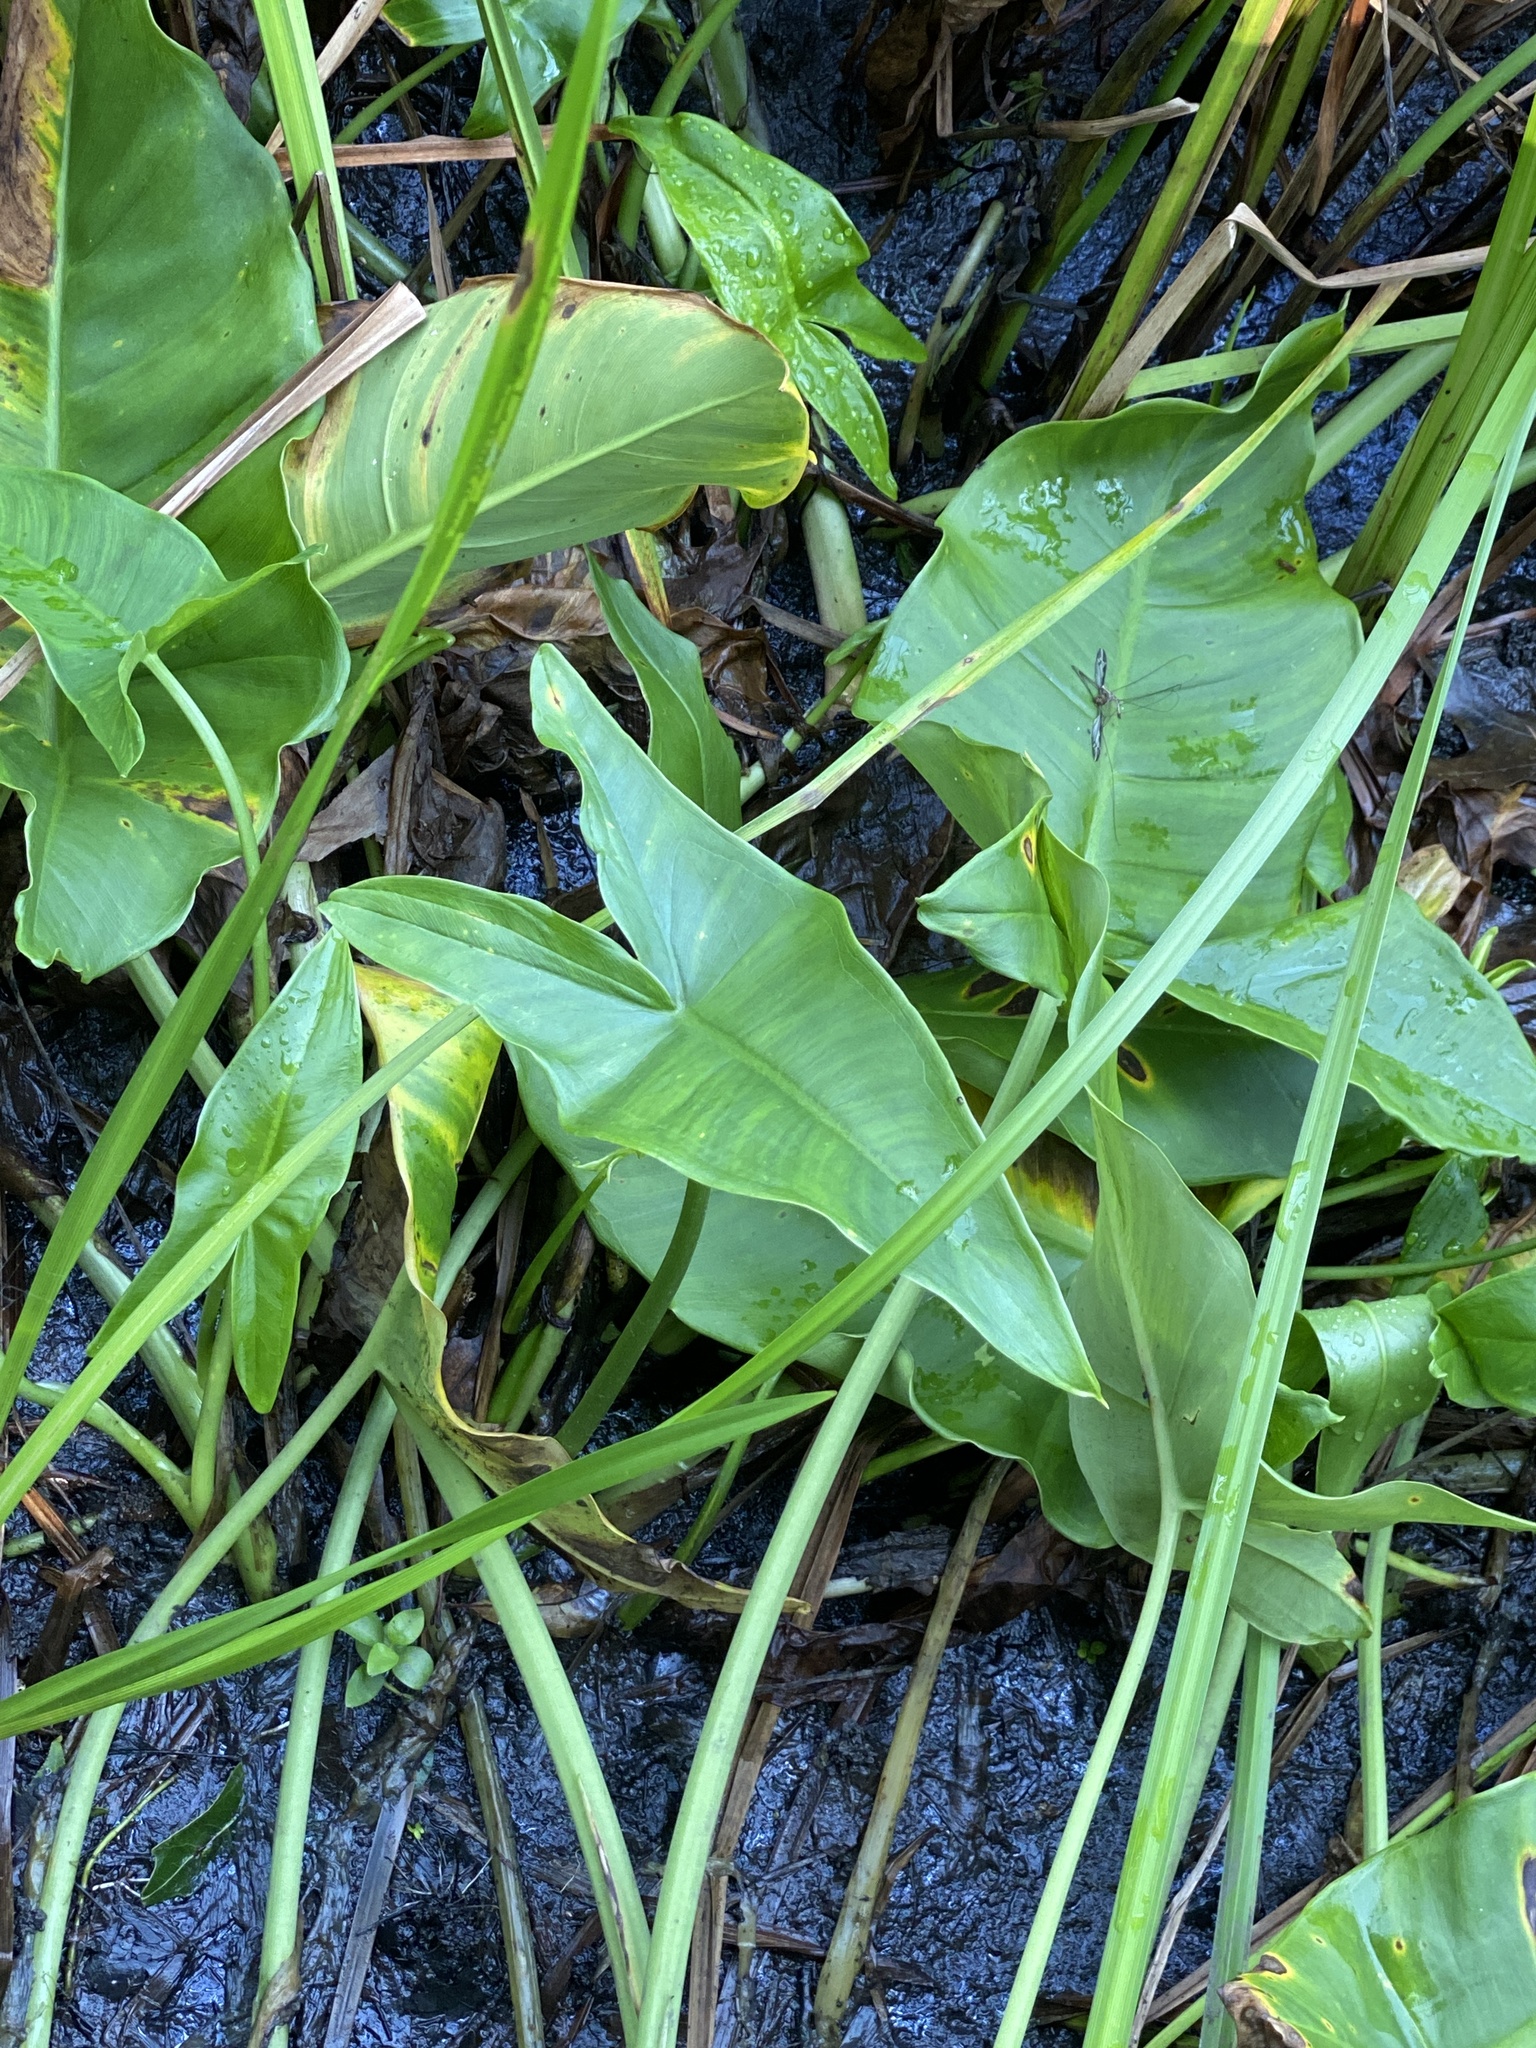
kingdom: Plantae
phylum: Tracheophyta
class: Liliopsida
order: Alismatales
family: Araceae
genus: Peltandra
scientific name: Peltandra virginica
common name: Arrow arum
